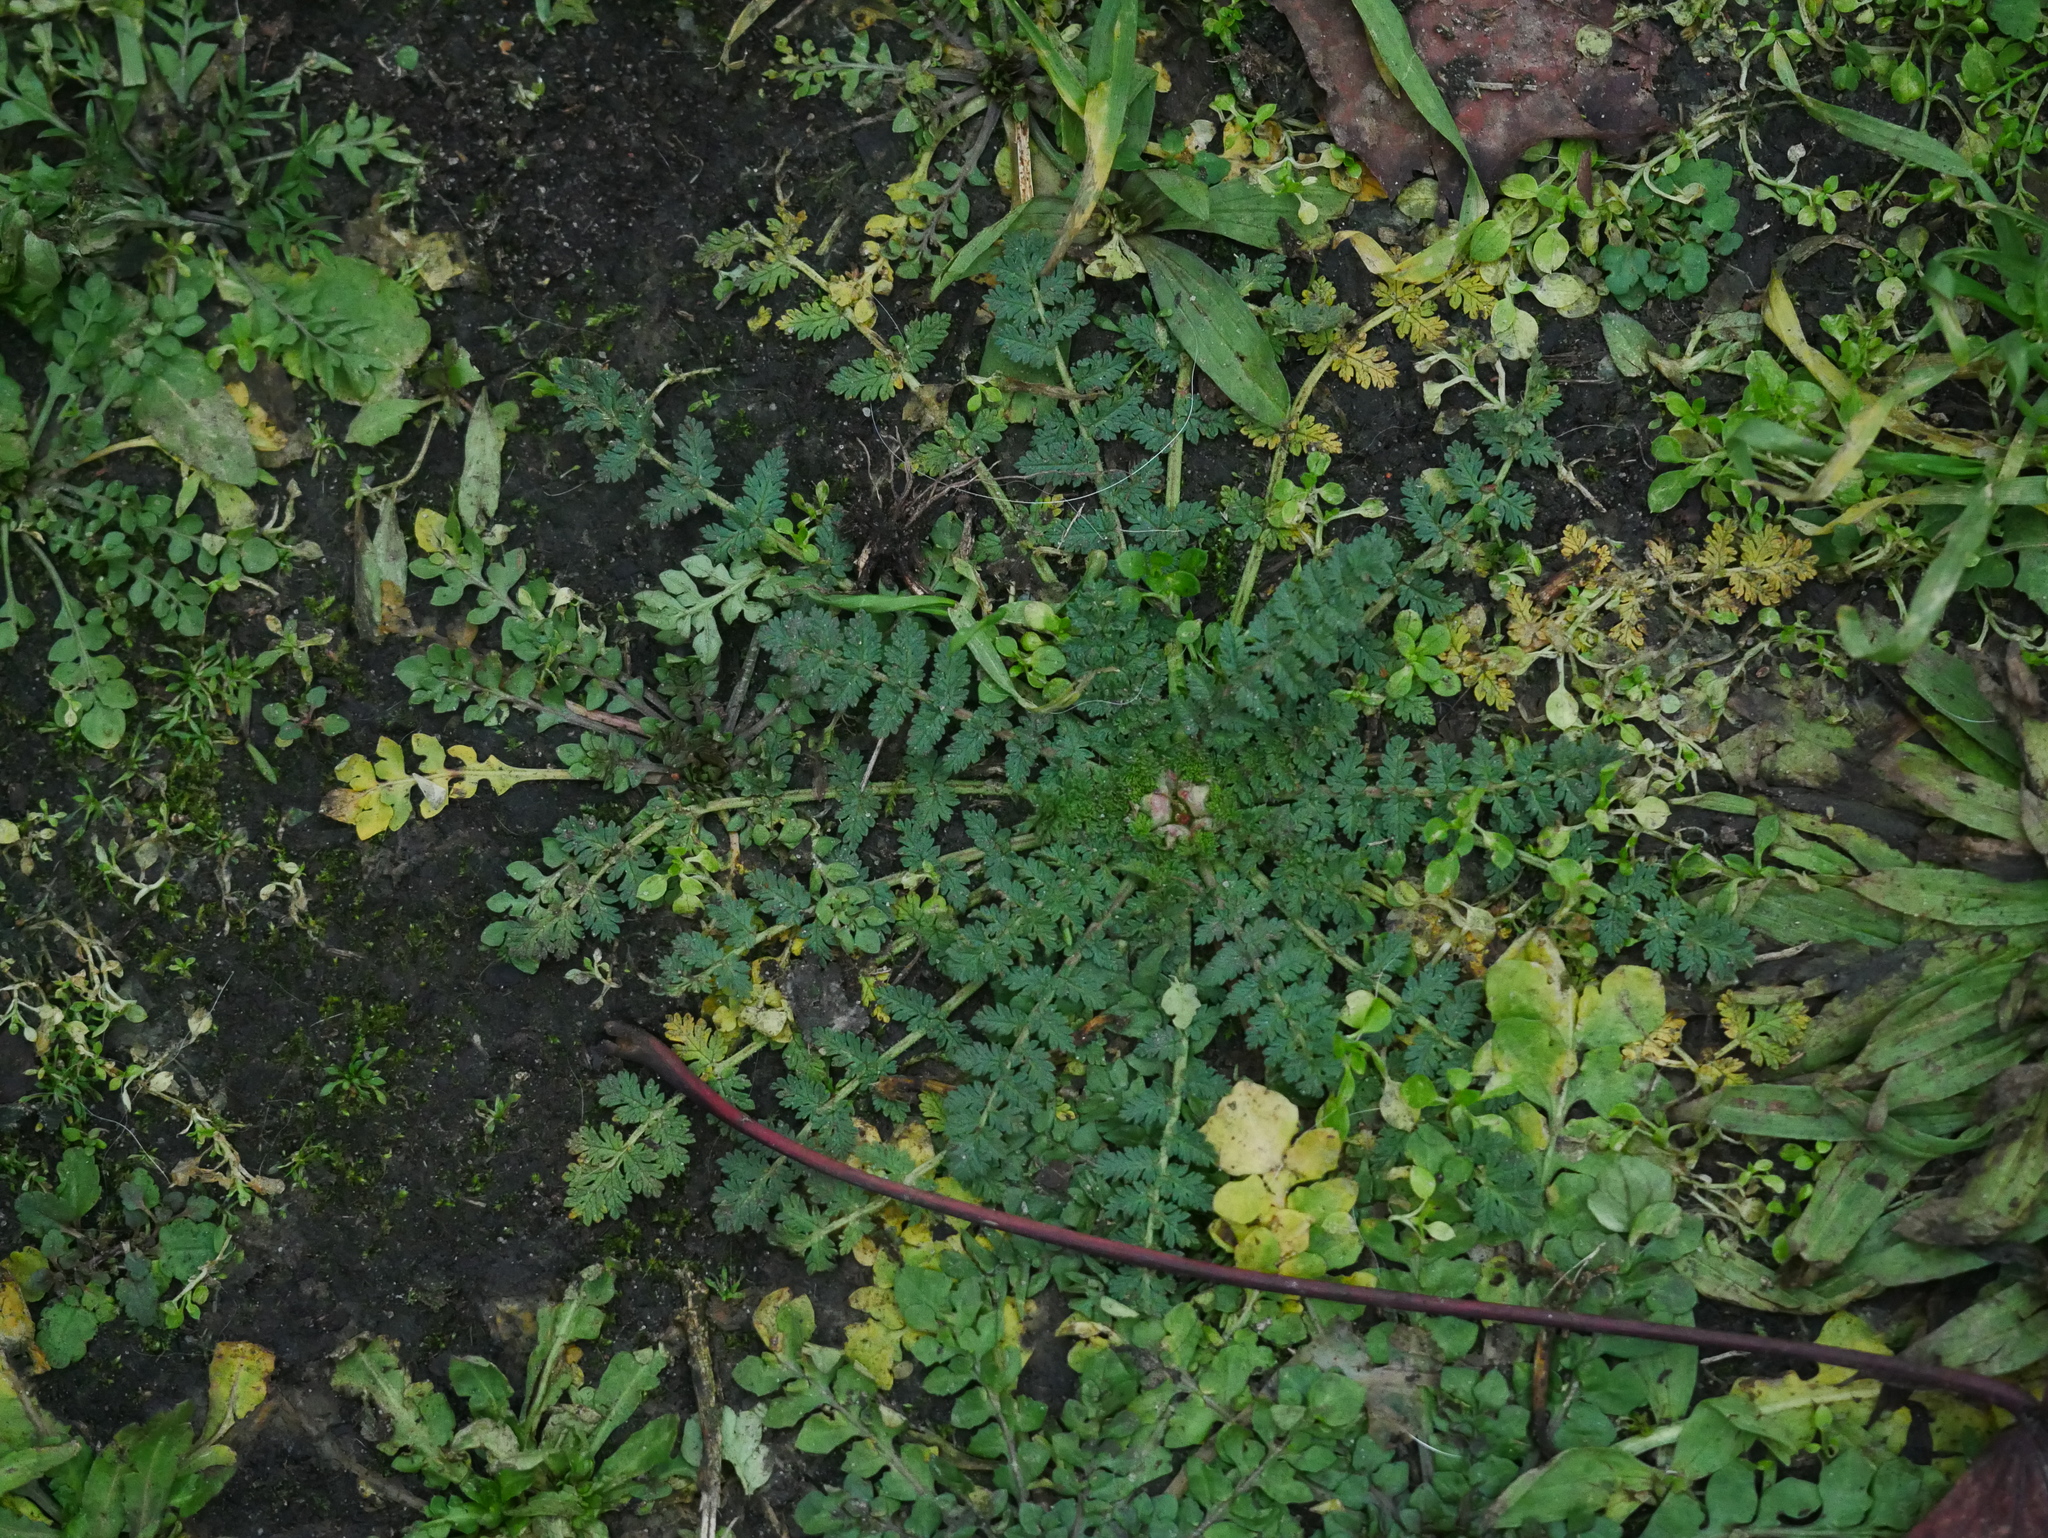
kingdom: Plantae
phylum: Tracheophyta
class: Magnoliopsida
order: Geraniales
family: Geraniaceae
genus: Erodium
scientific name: Erodium cicutarium
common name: Common stork's-bill
